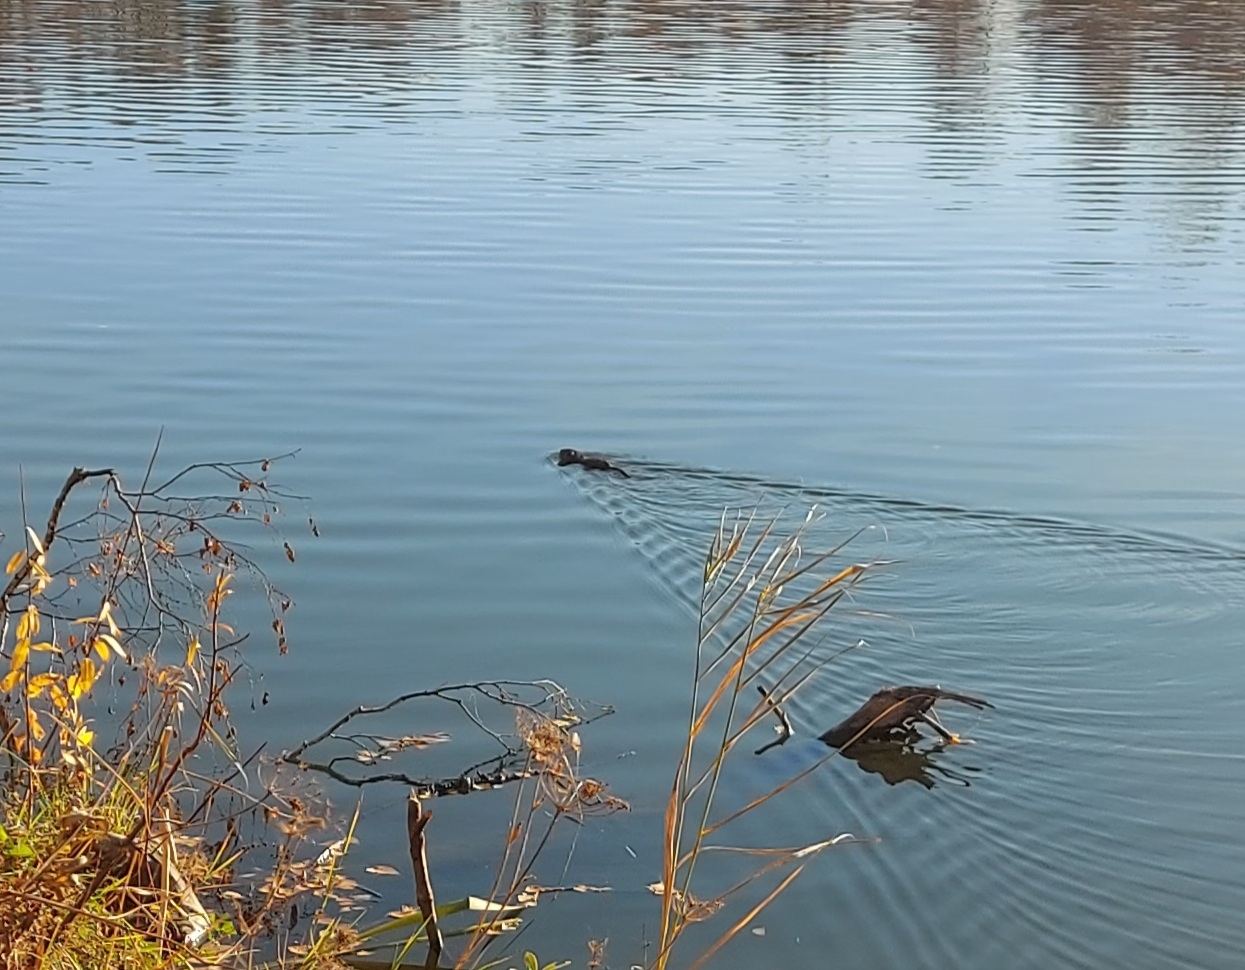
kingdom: Animalia
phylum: Chordata
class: Mammalia
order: Rodentia
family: Cricetidae
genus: Ondatra
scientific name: Ondatra zibethicus
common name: Muskrat
